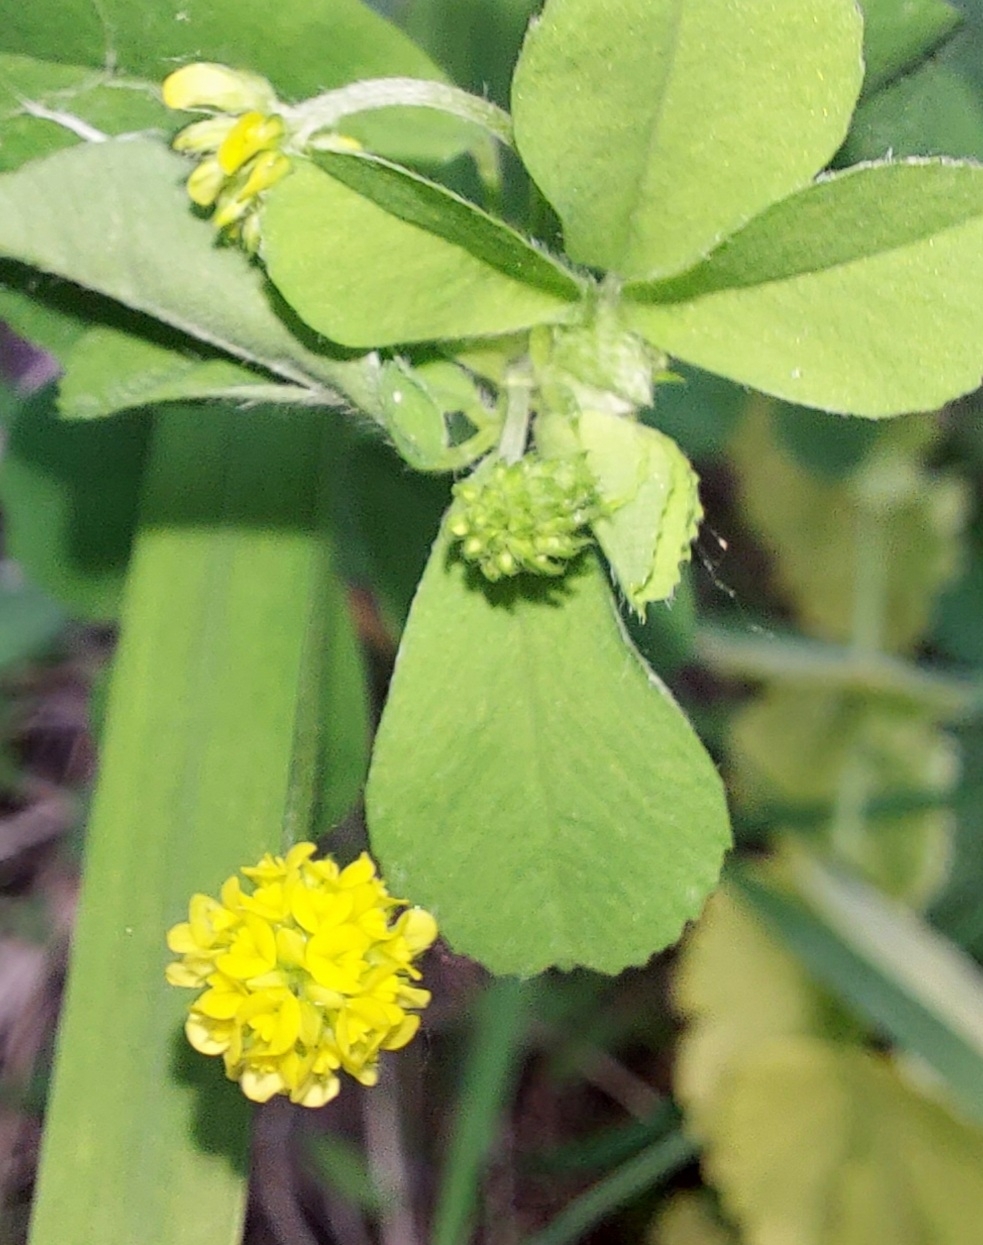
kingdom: Plantae
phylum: Tracheophyta
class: Magnoliopsida
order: Fabales
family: Fabaceae
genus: Medicago
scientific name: Medicago lupulina
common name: Black medick
